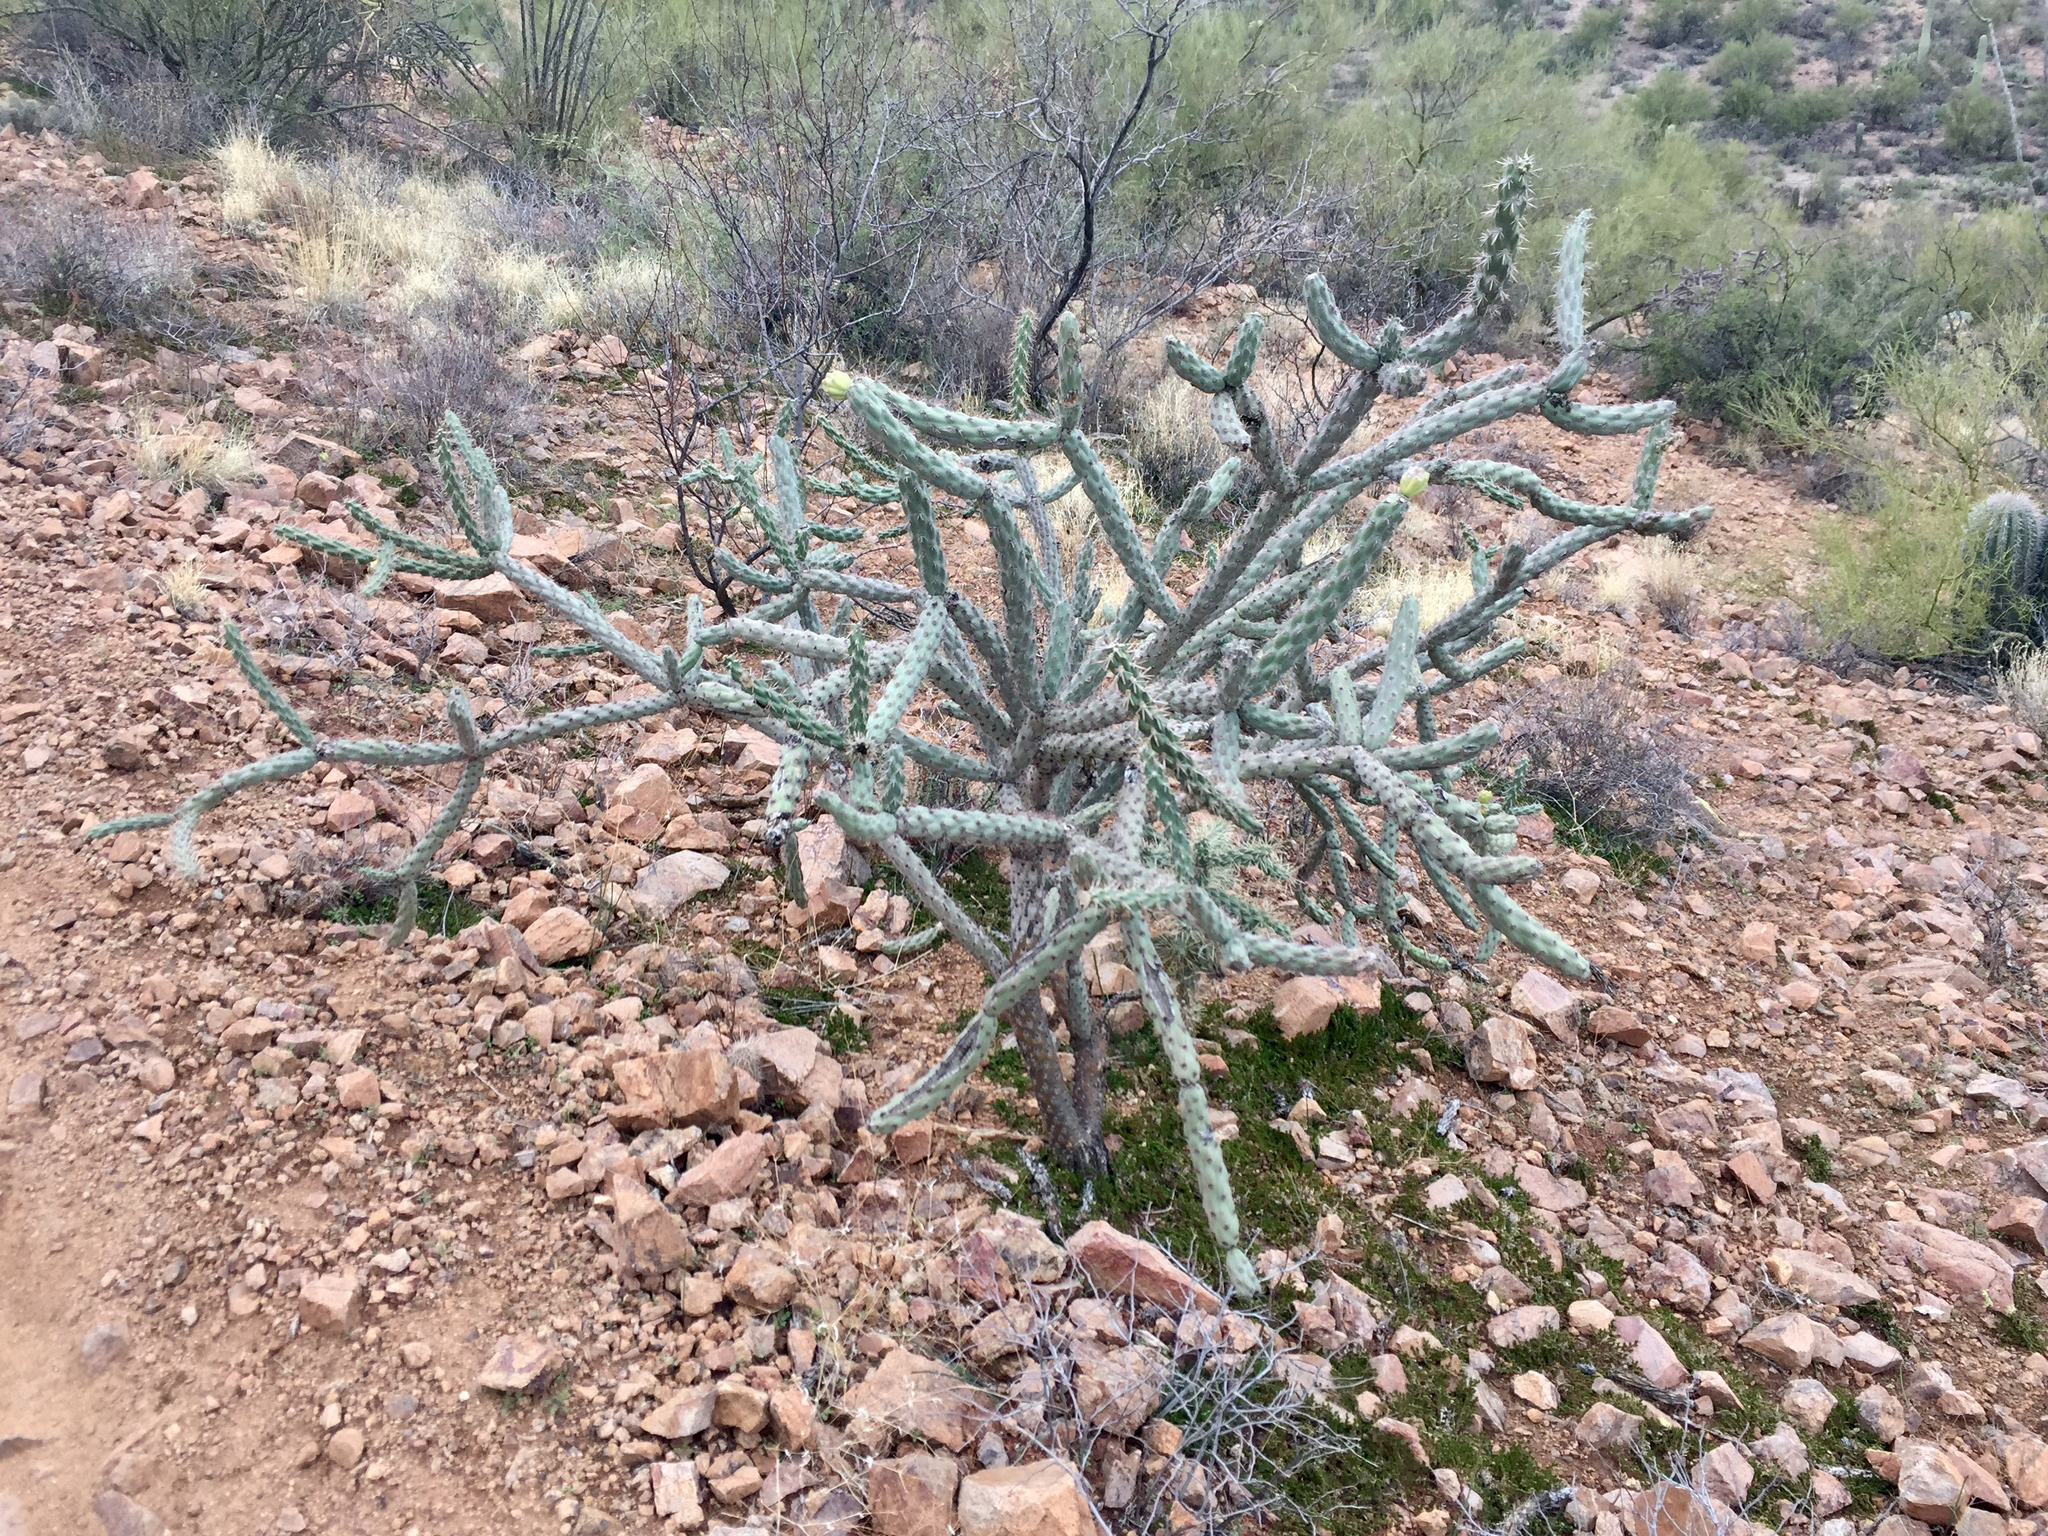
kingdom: Plantae
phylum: Tracheophyta
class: Magnoliopsida
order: Caryophyllales
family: Cactaceae
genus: Cylindropuntia
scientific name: Cylindropuntia imbricata
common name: Candelabrum cactus
